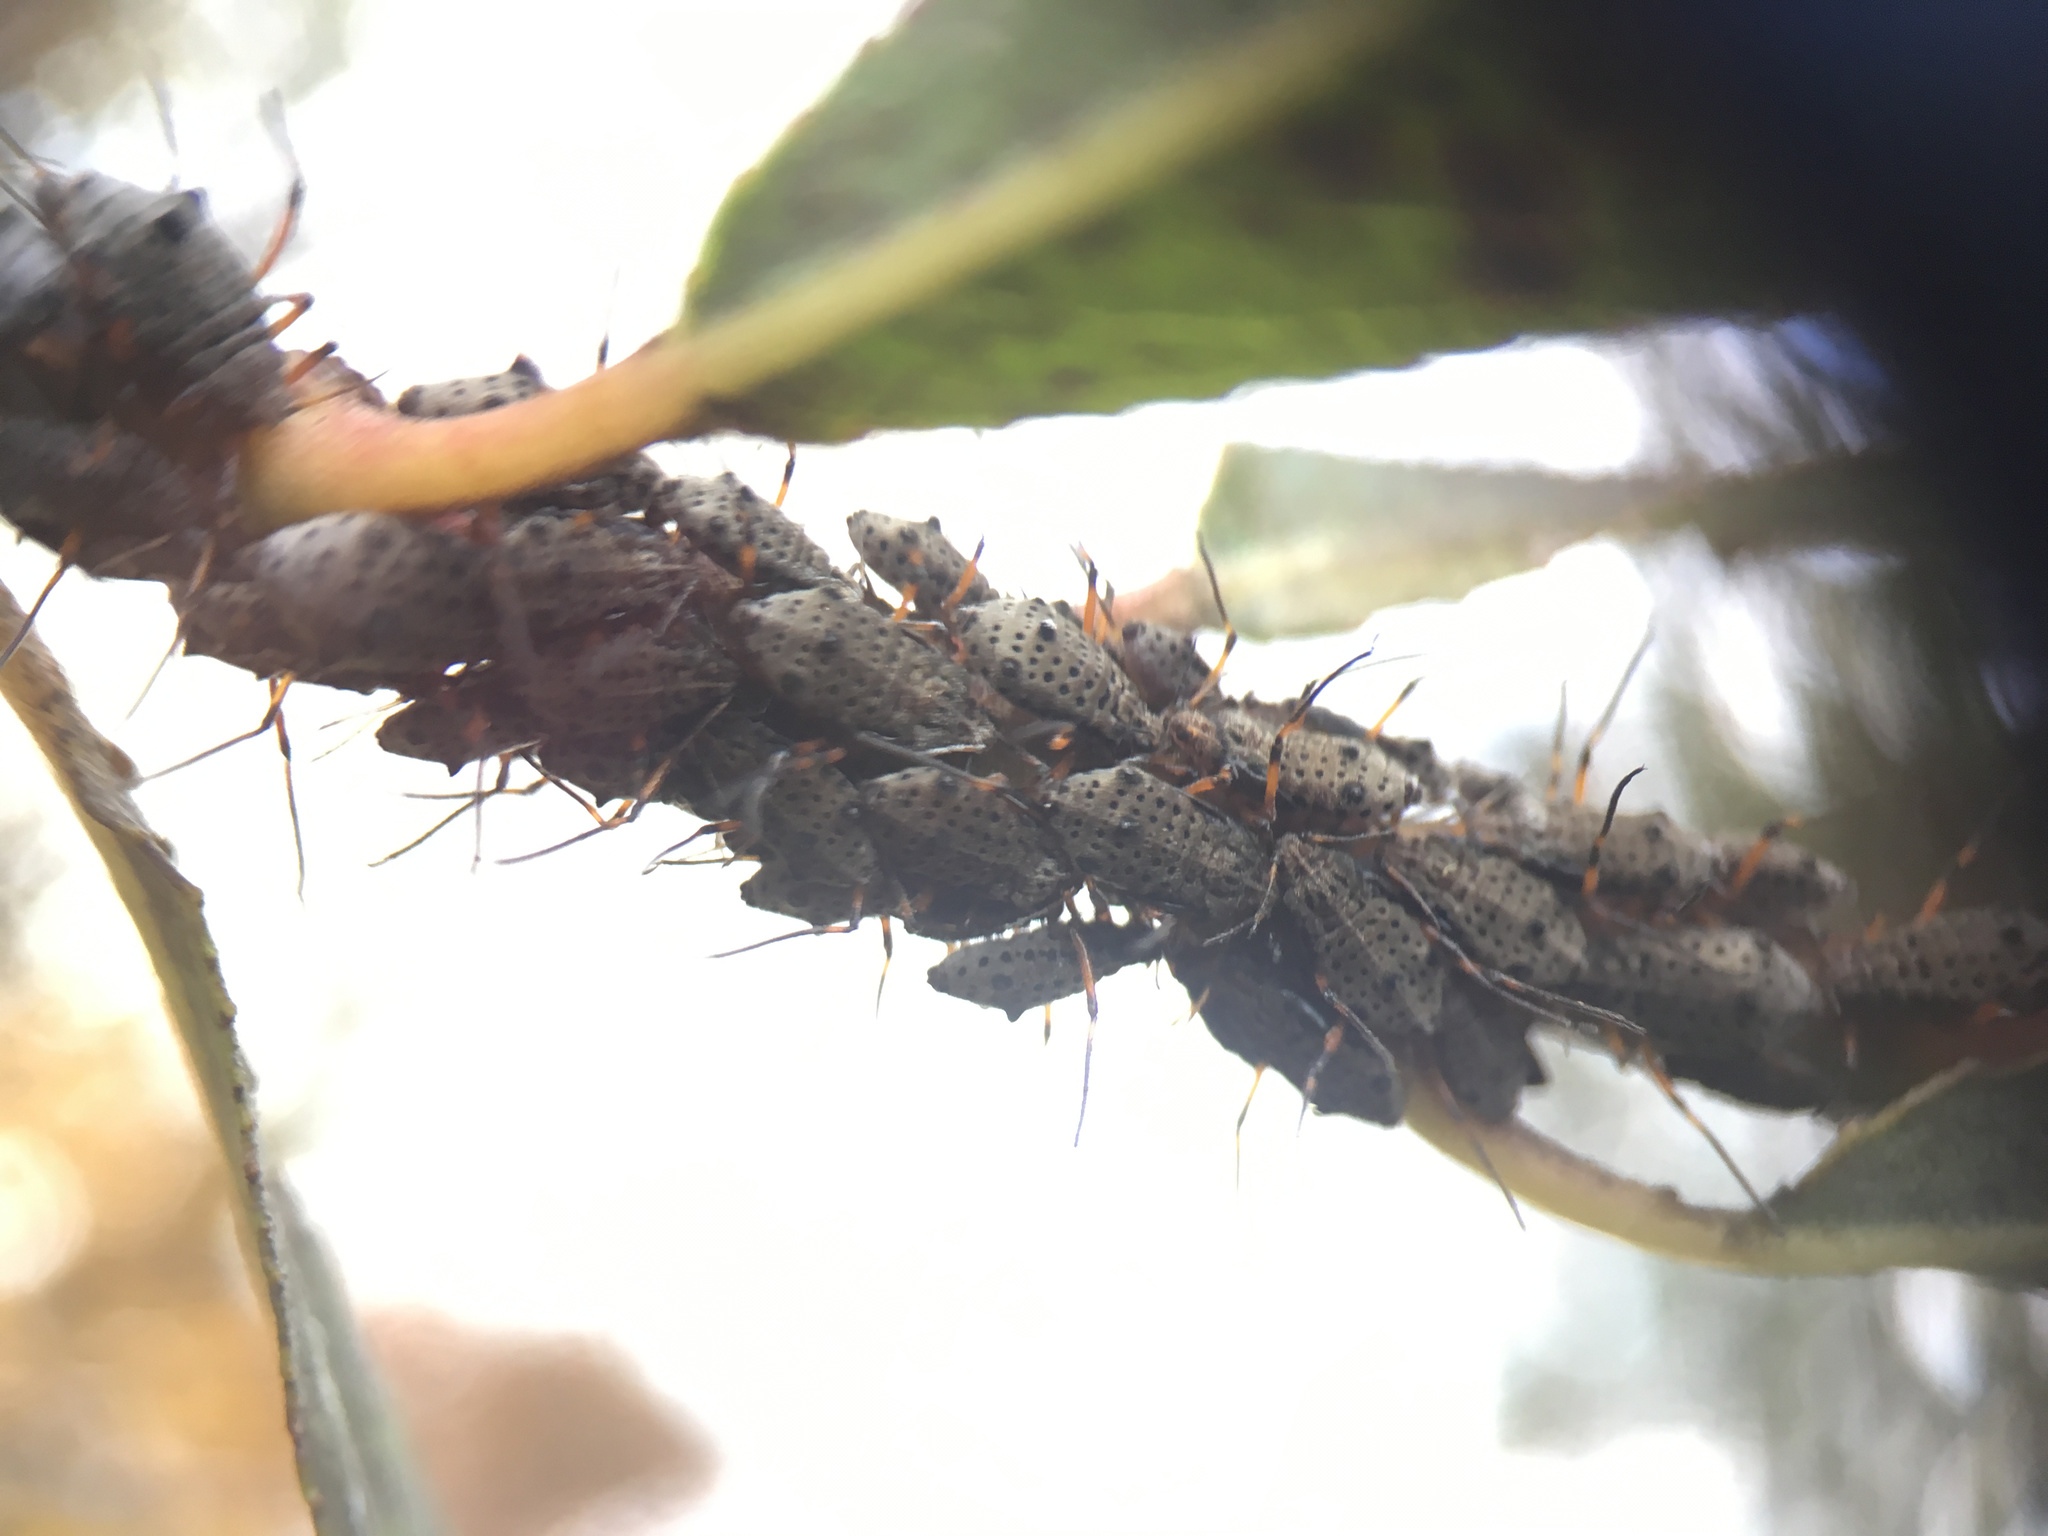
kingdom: Animalia
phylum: Arthropoda
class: Insecta
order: Hemiptera
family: Aphididae
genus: Tuberolachnus
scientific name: Tuberolachnus salignus
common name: Giant willow aphid
